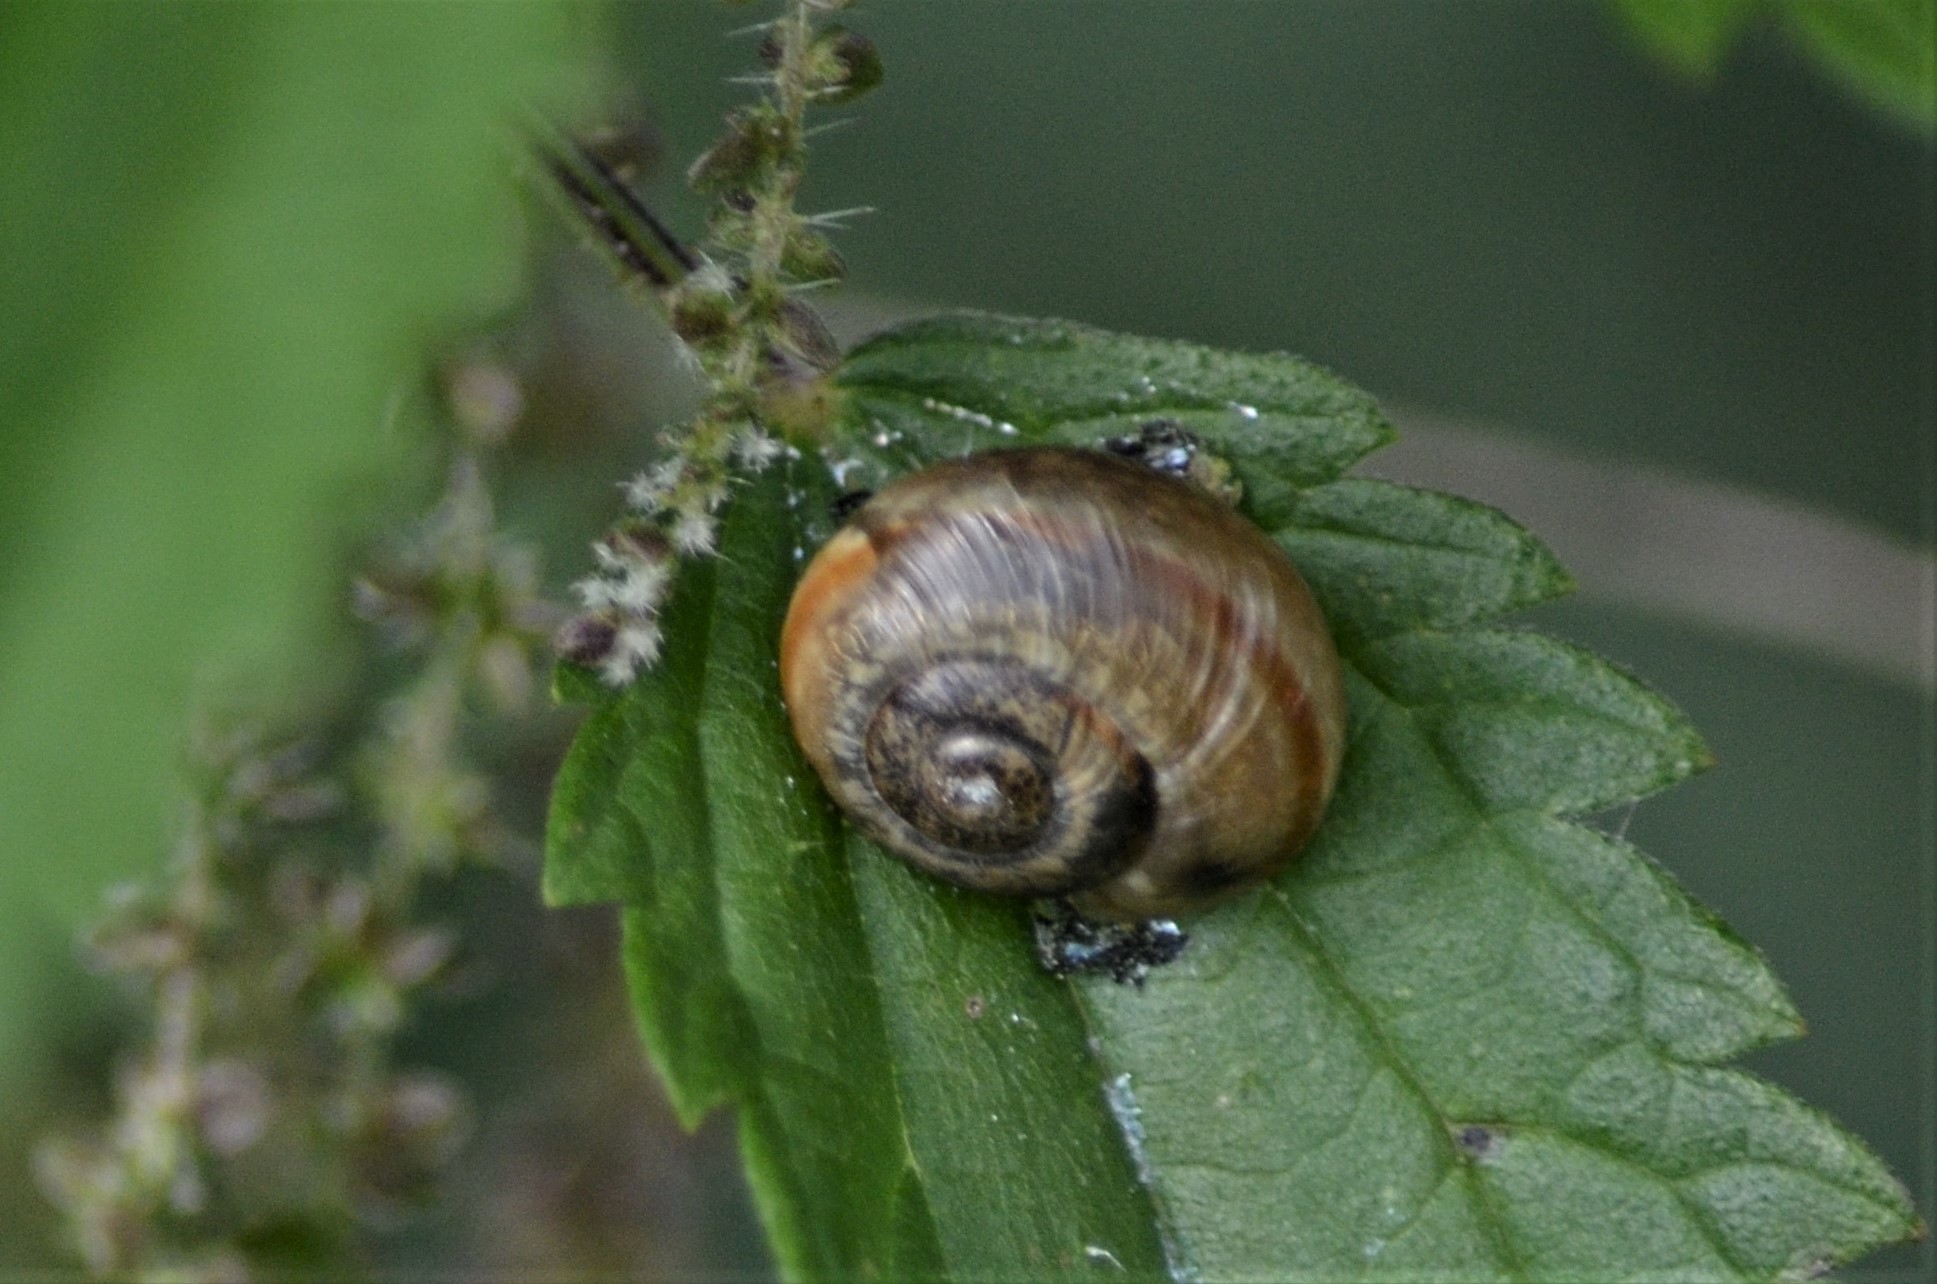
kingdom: Animalia
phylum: Mollusca
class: Gastropoda
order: Stylommatophora
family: Helicidae
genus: Arianta
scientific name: Arianta arbustorum
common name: Copse snail
